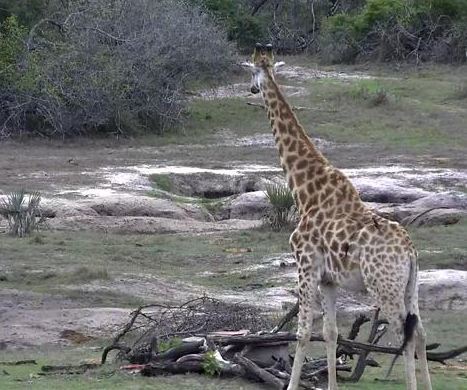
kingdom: Animalia
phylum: Chordata
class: Mammalia
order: Artiodactyla
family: Giraffidae
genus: Giraffa
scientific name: Giraffa giraffa
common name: Southern giraffe
